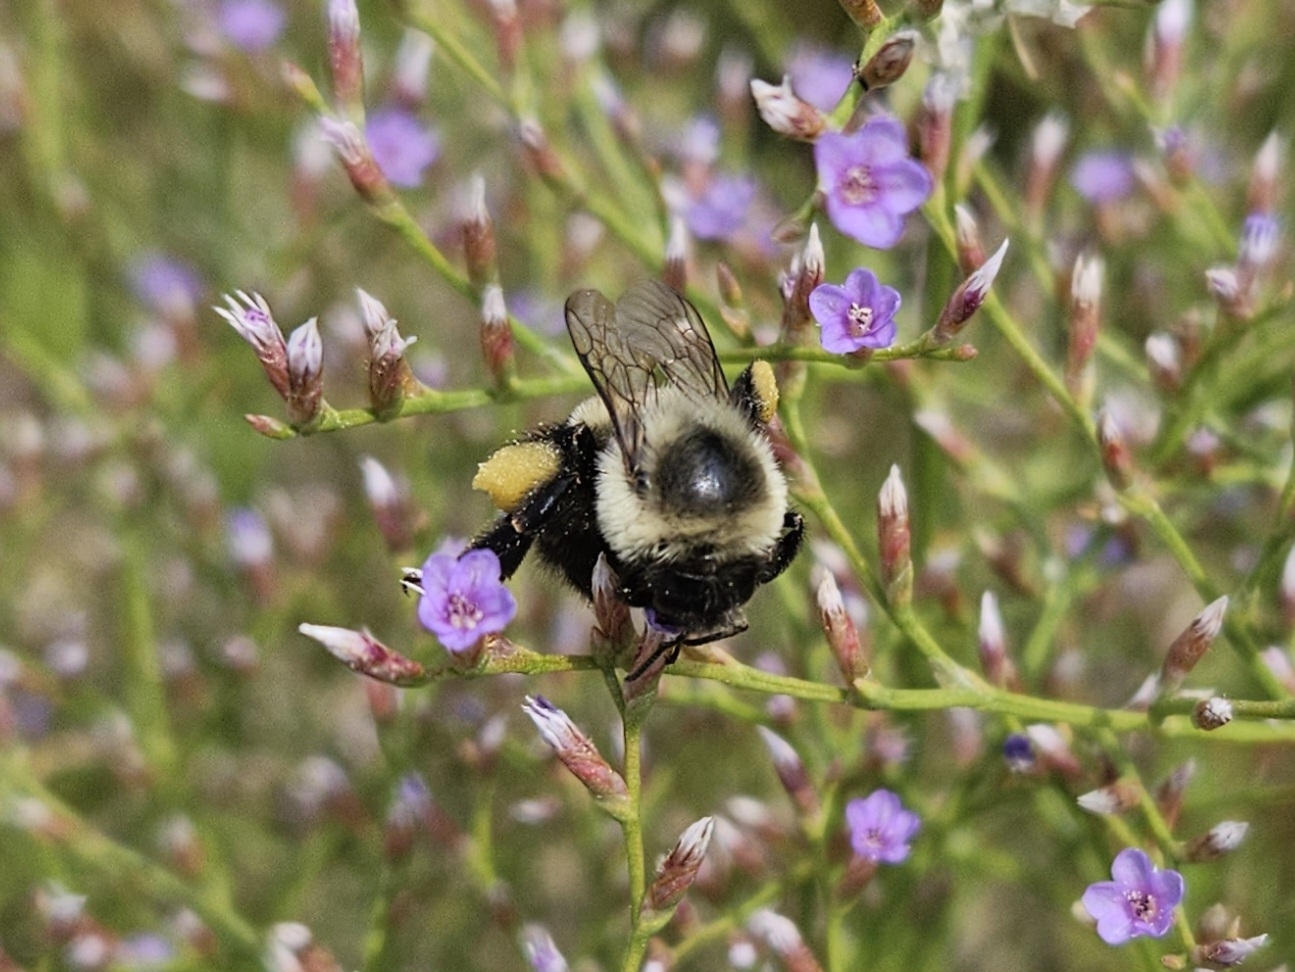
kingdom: Animalia
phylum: Arthropoda
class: Insecta
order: Hymenoptera
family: Apidae
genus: Bombus
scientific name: Bombus impatiens
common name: Common eastern bumble bee
